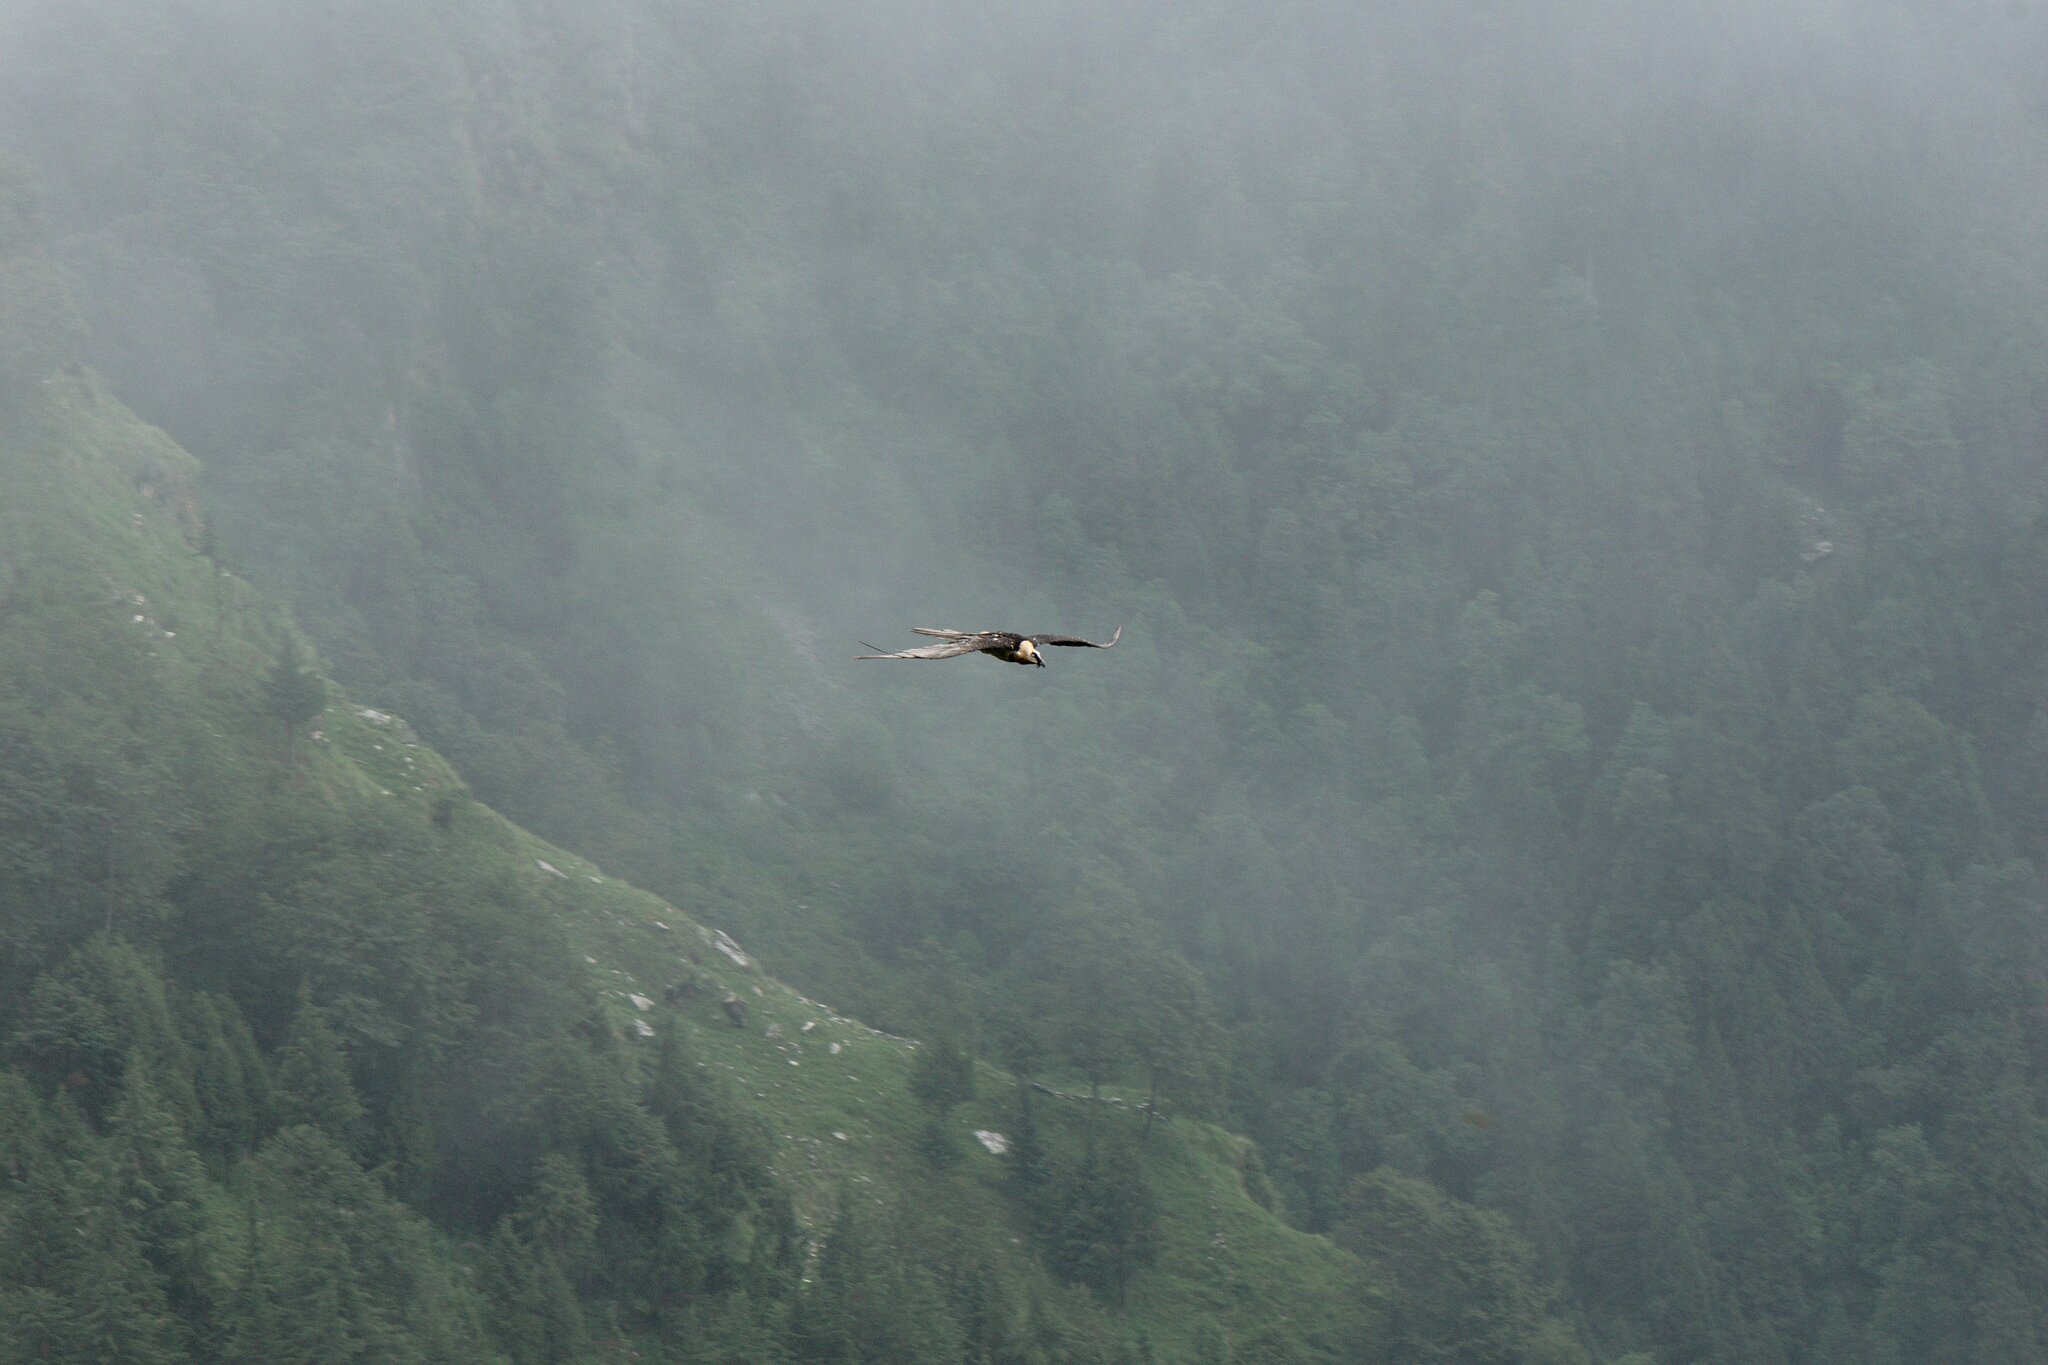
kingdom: Animalia
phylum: Chordata
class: Aves
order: Accipitriformes
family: Accipitridae
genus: Gypaetus
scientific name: Gypaetus barbatus
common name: Bearded vulture
